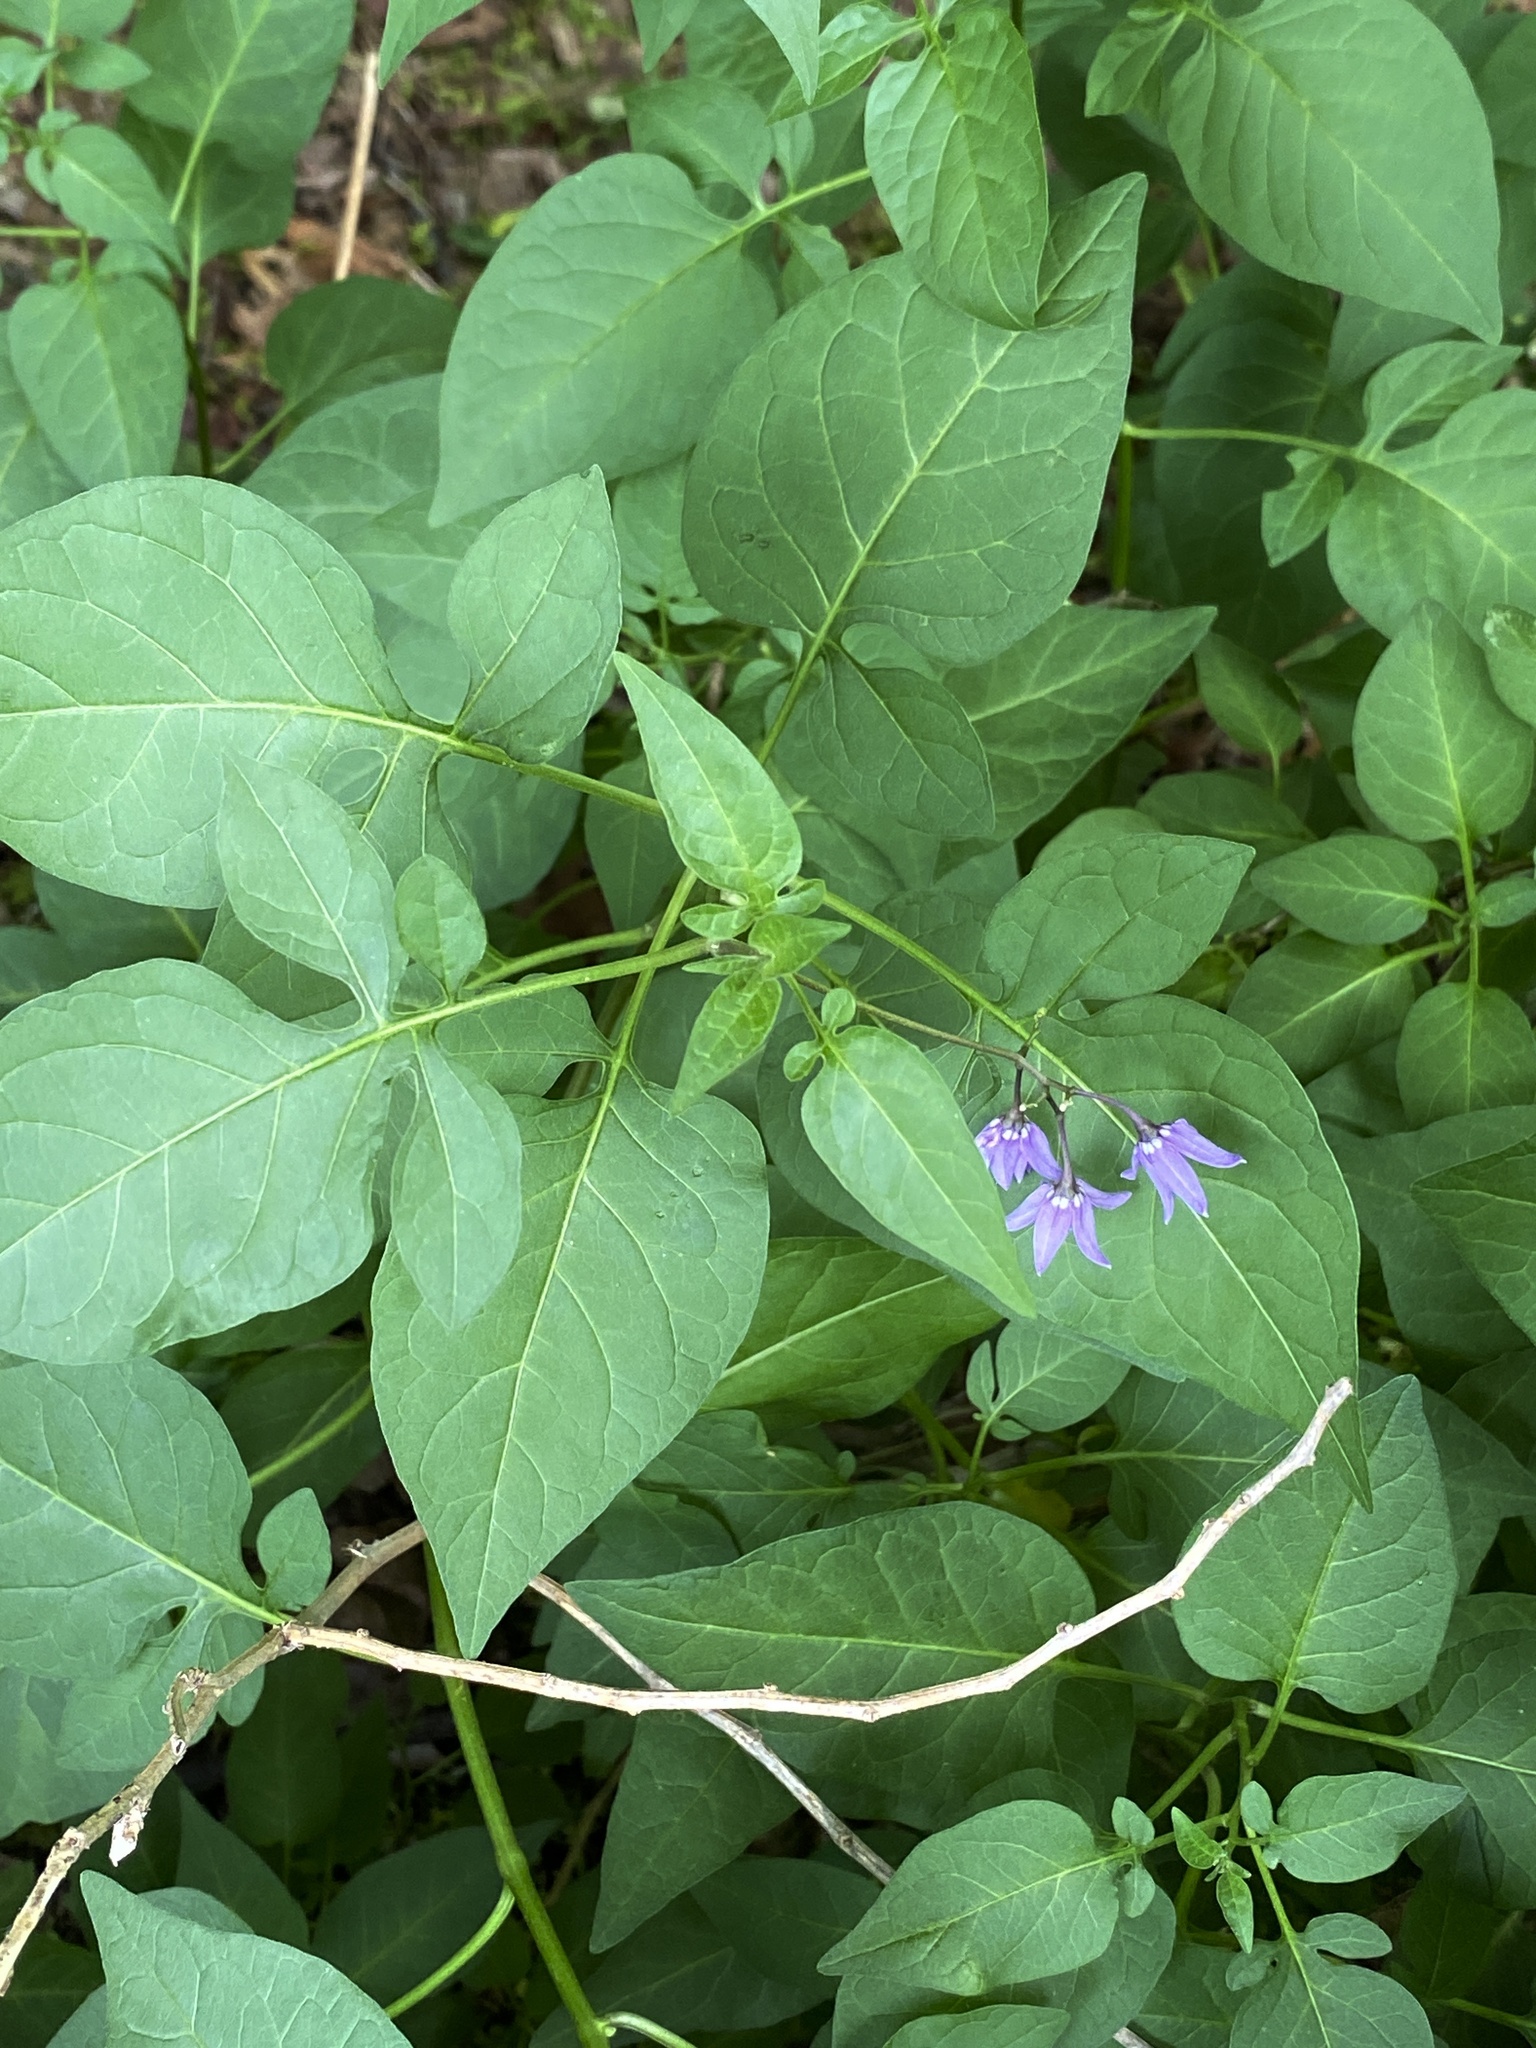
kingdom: Plantae
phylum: Tracheophyta
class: Magnoliopsida
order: Solanales
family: Solanaceae
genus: Solanum
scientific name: Solanum dulcamara
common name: Climbing nightshade
